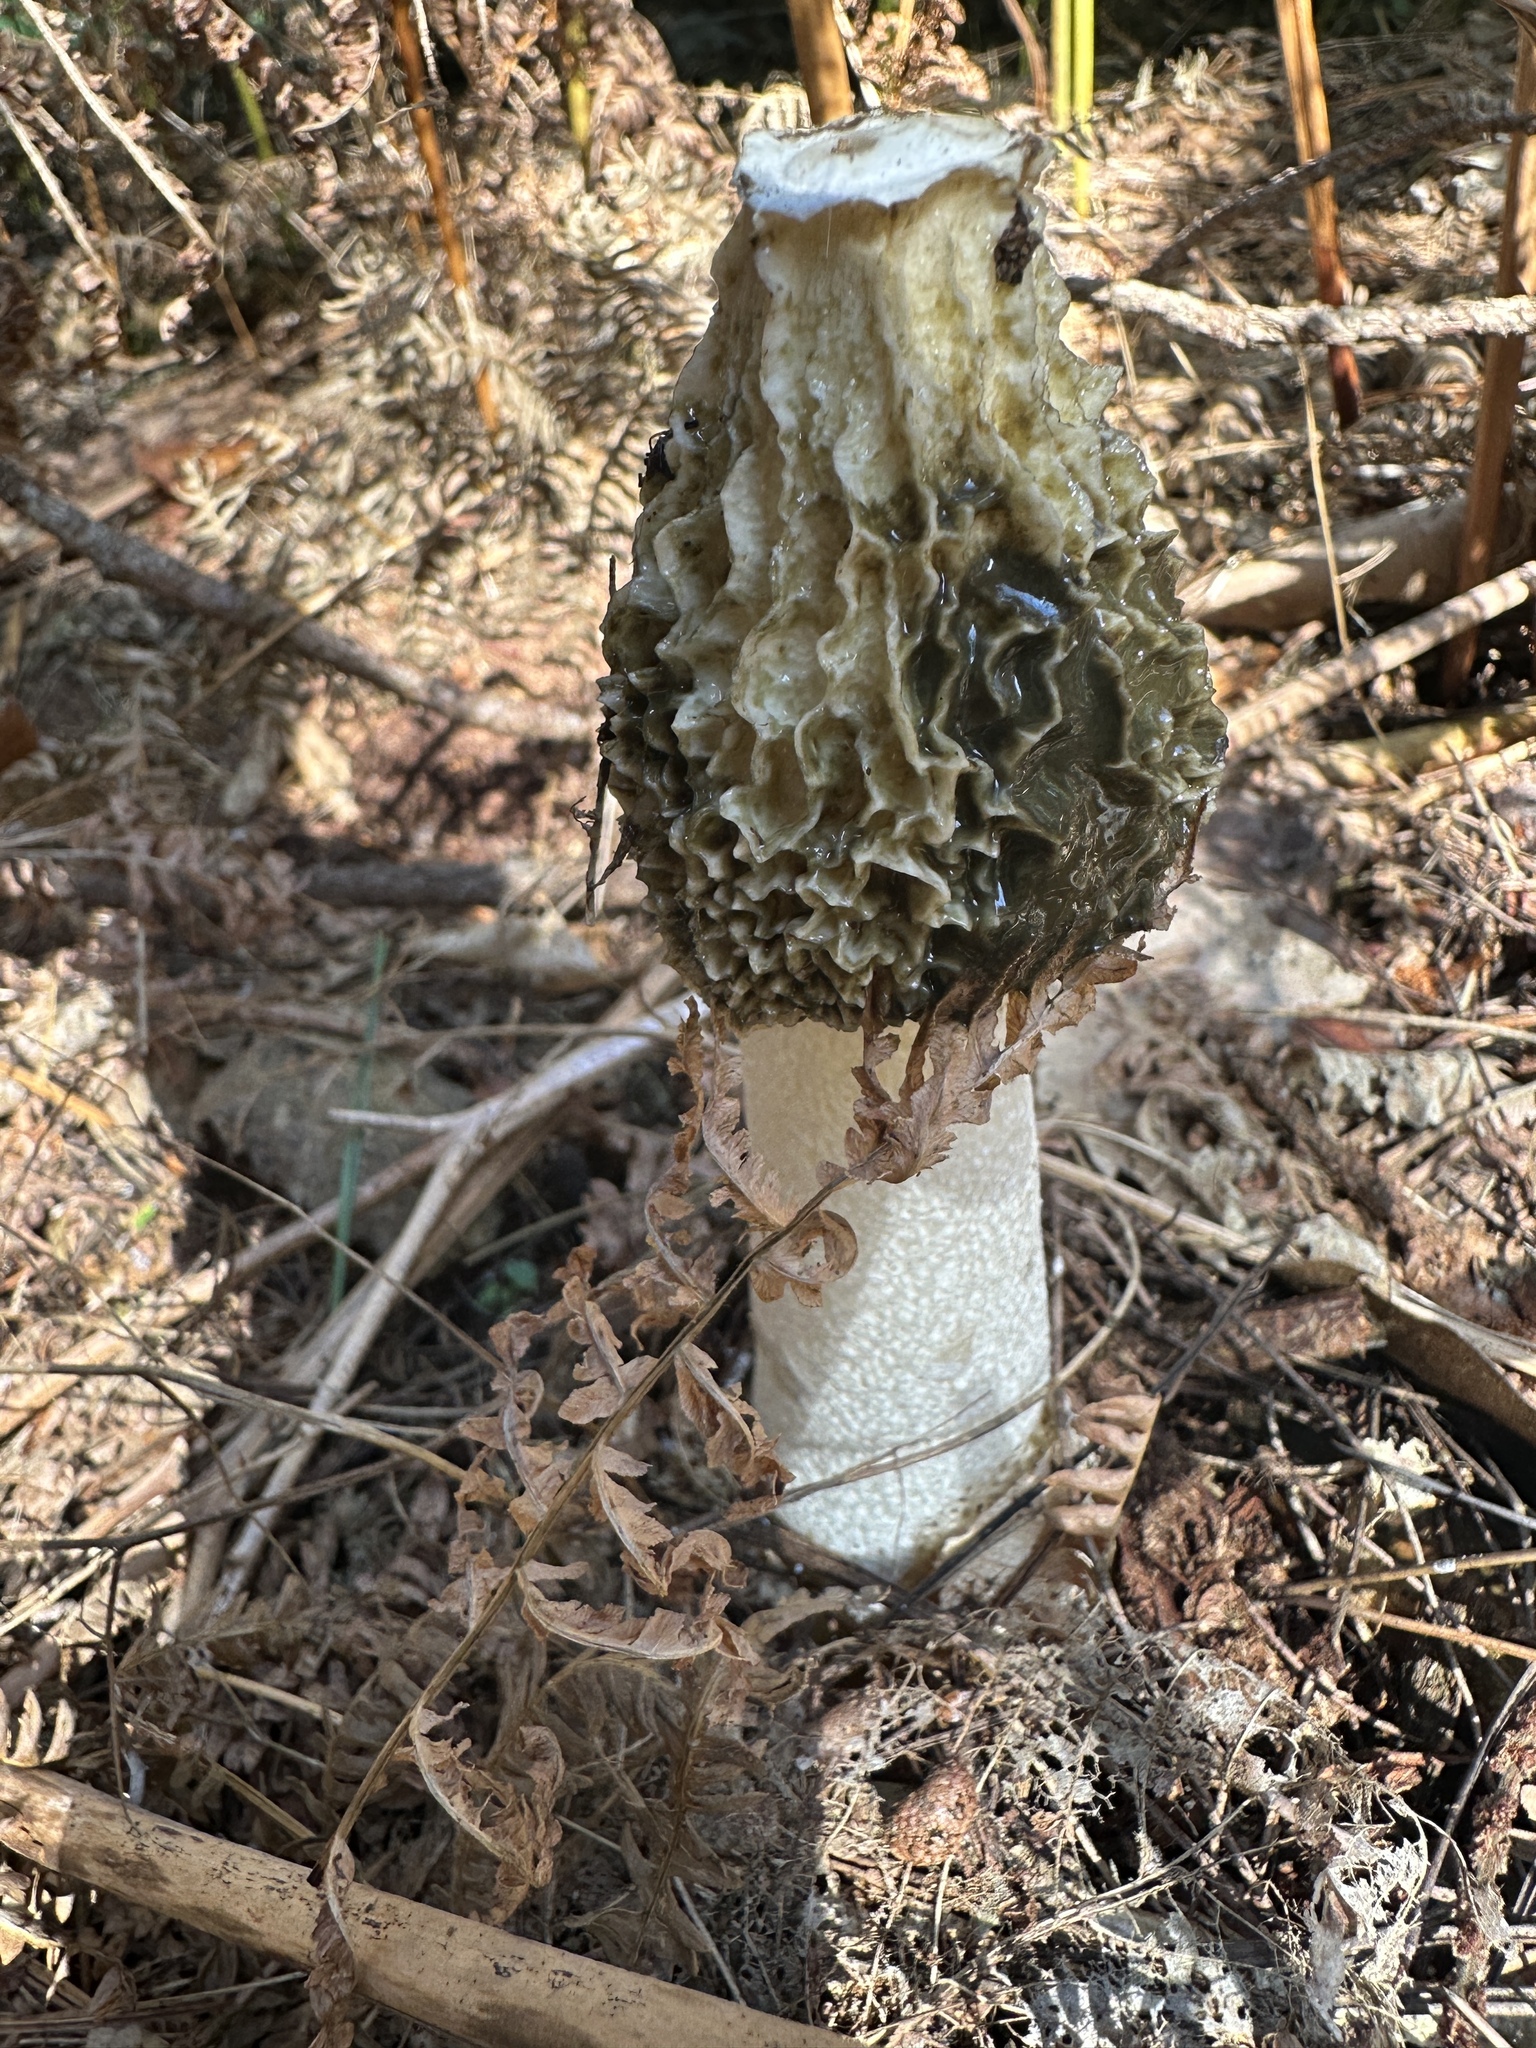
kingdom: Fungi
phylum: Basidiomycota
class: Agaricomycetes
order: Phallales
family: Phallaceae
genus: Phallus
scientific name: Phallus impudicus
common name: Common stinkhorn
